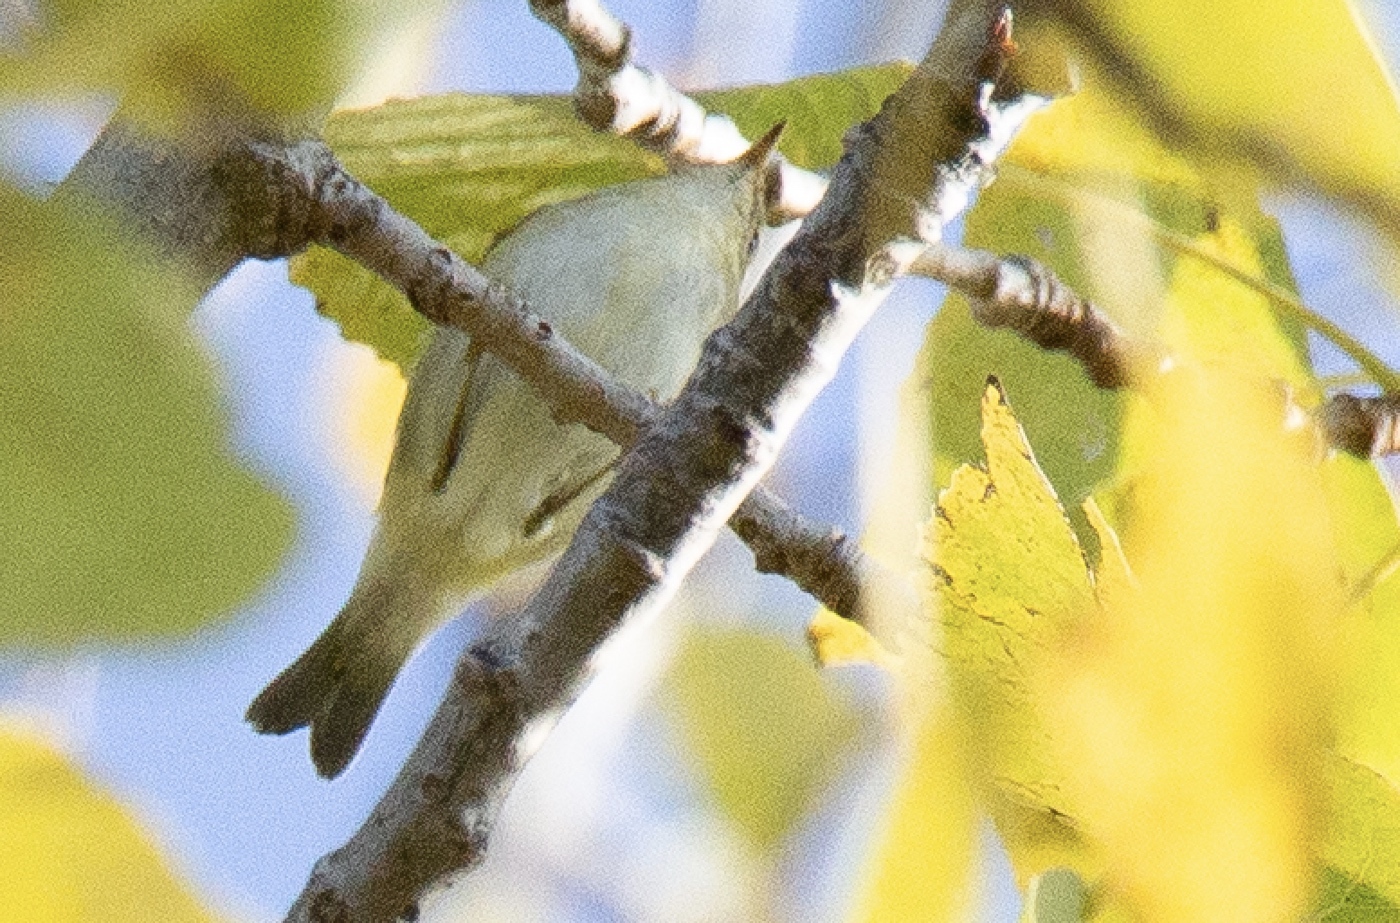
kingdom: Animalia
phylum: Chordata
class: Aves
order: Passeriformes
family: Phylloscopidae
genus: Phylloscopus
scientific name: Phylloscopus inornatus
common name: Yellow-browed warbler
